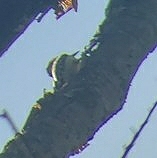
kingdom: Animalia
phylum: Chordata
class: Aves
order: Piciformes
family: Picidae
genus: Leuconotopicus
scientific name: Leuconotopicus villosus
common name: Hairy woodpecker
